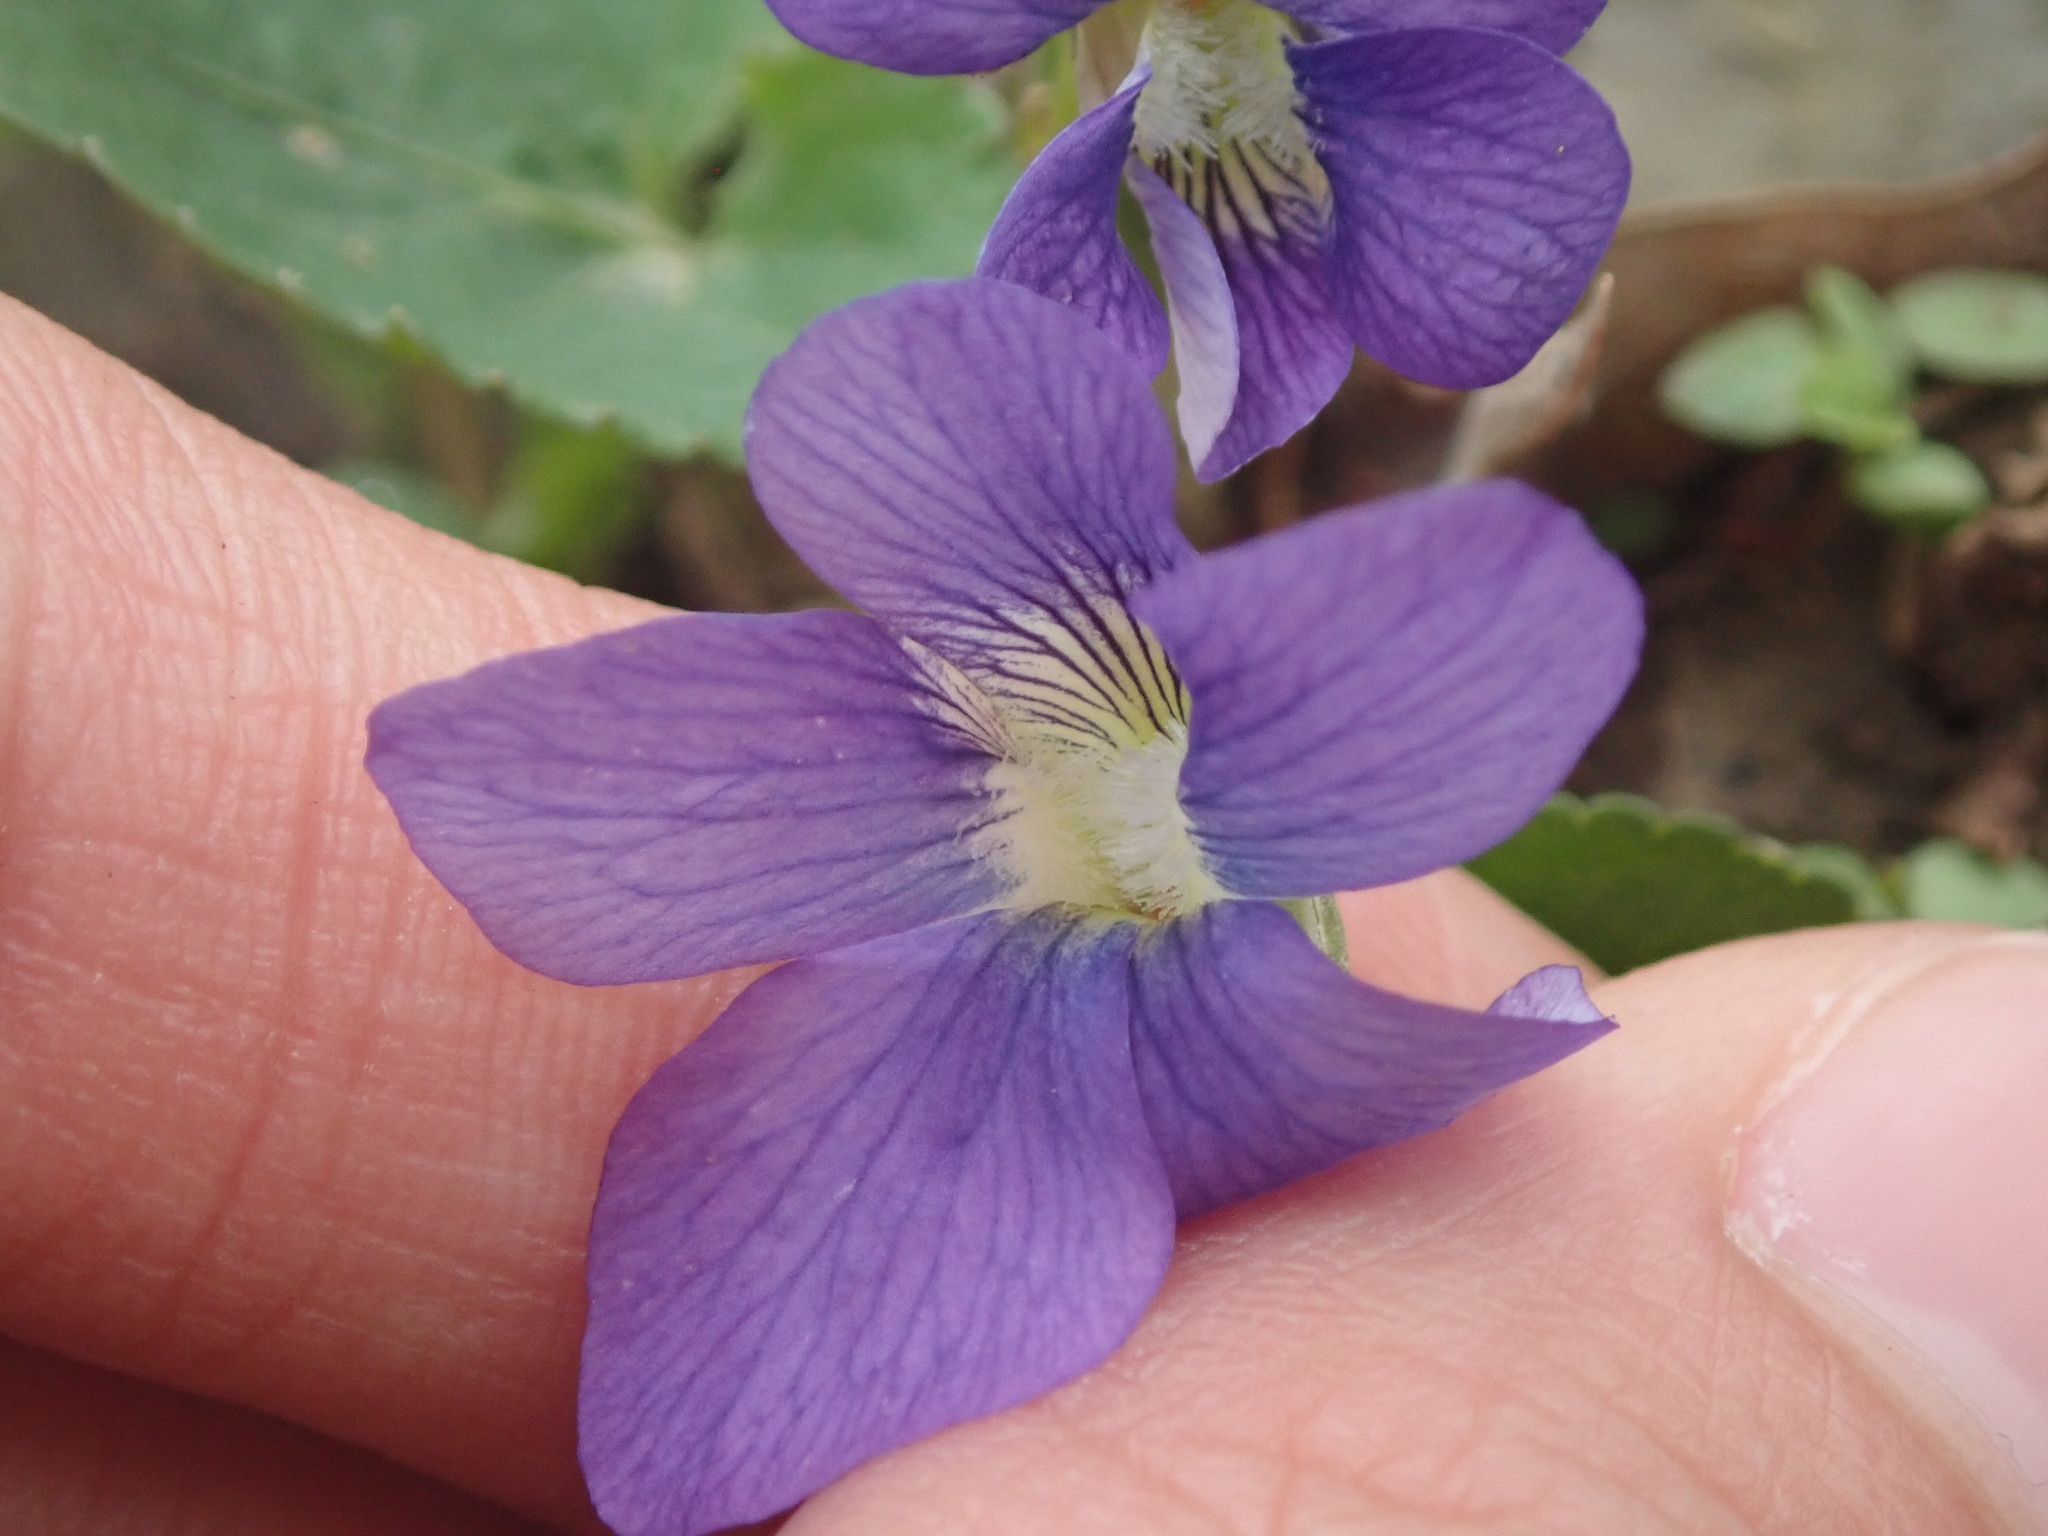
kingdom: Plantae
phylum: Tracheophyta
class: Magnoliopsida
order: Malpighiales
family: Violaceae
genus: Viola
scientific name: Viola sororia
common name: Dooryard violet
